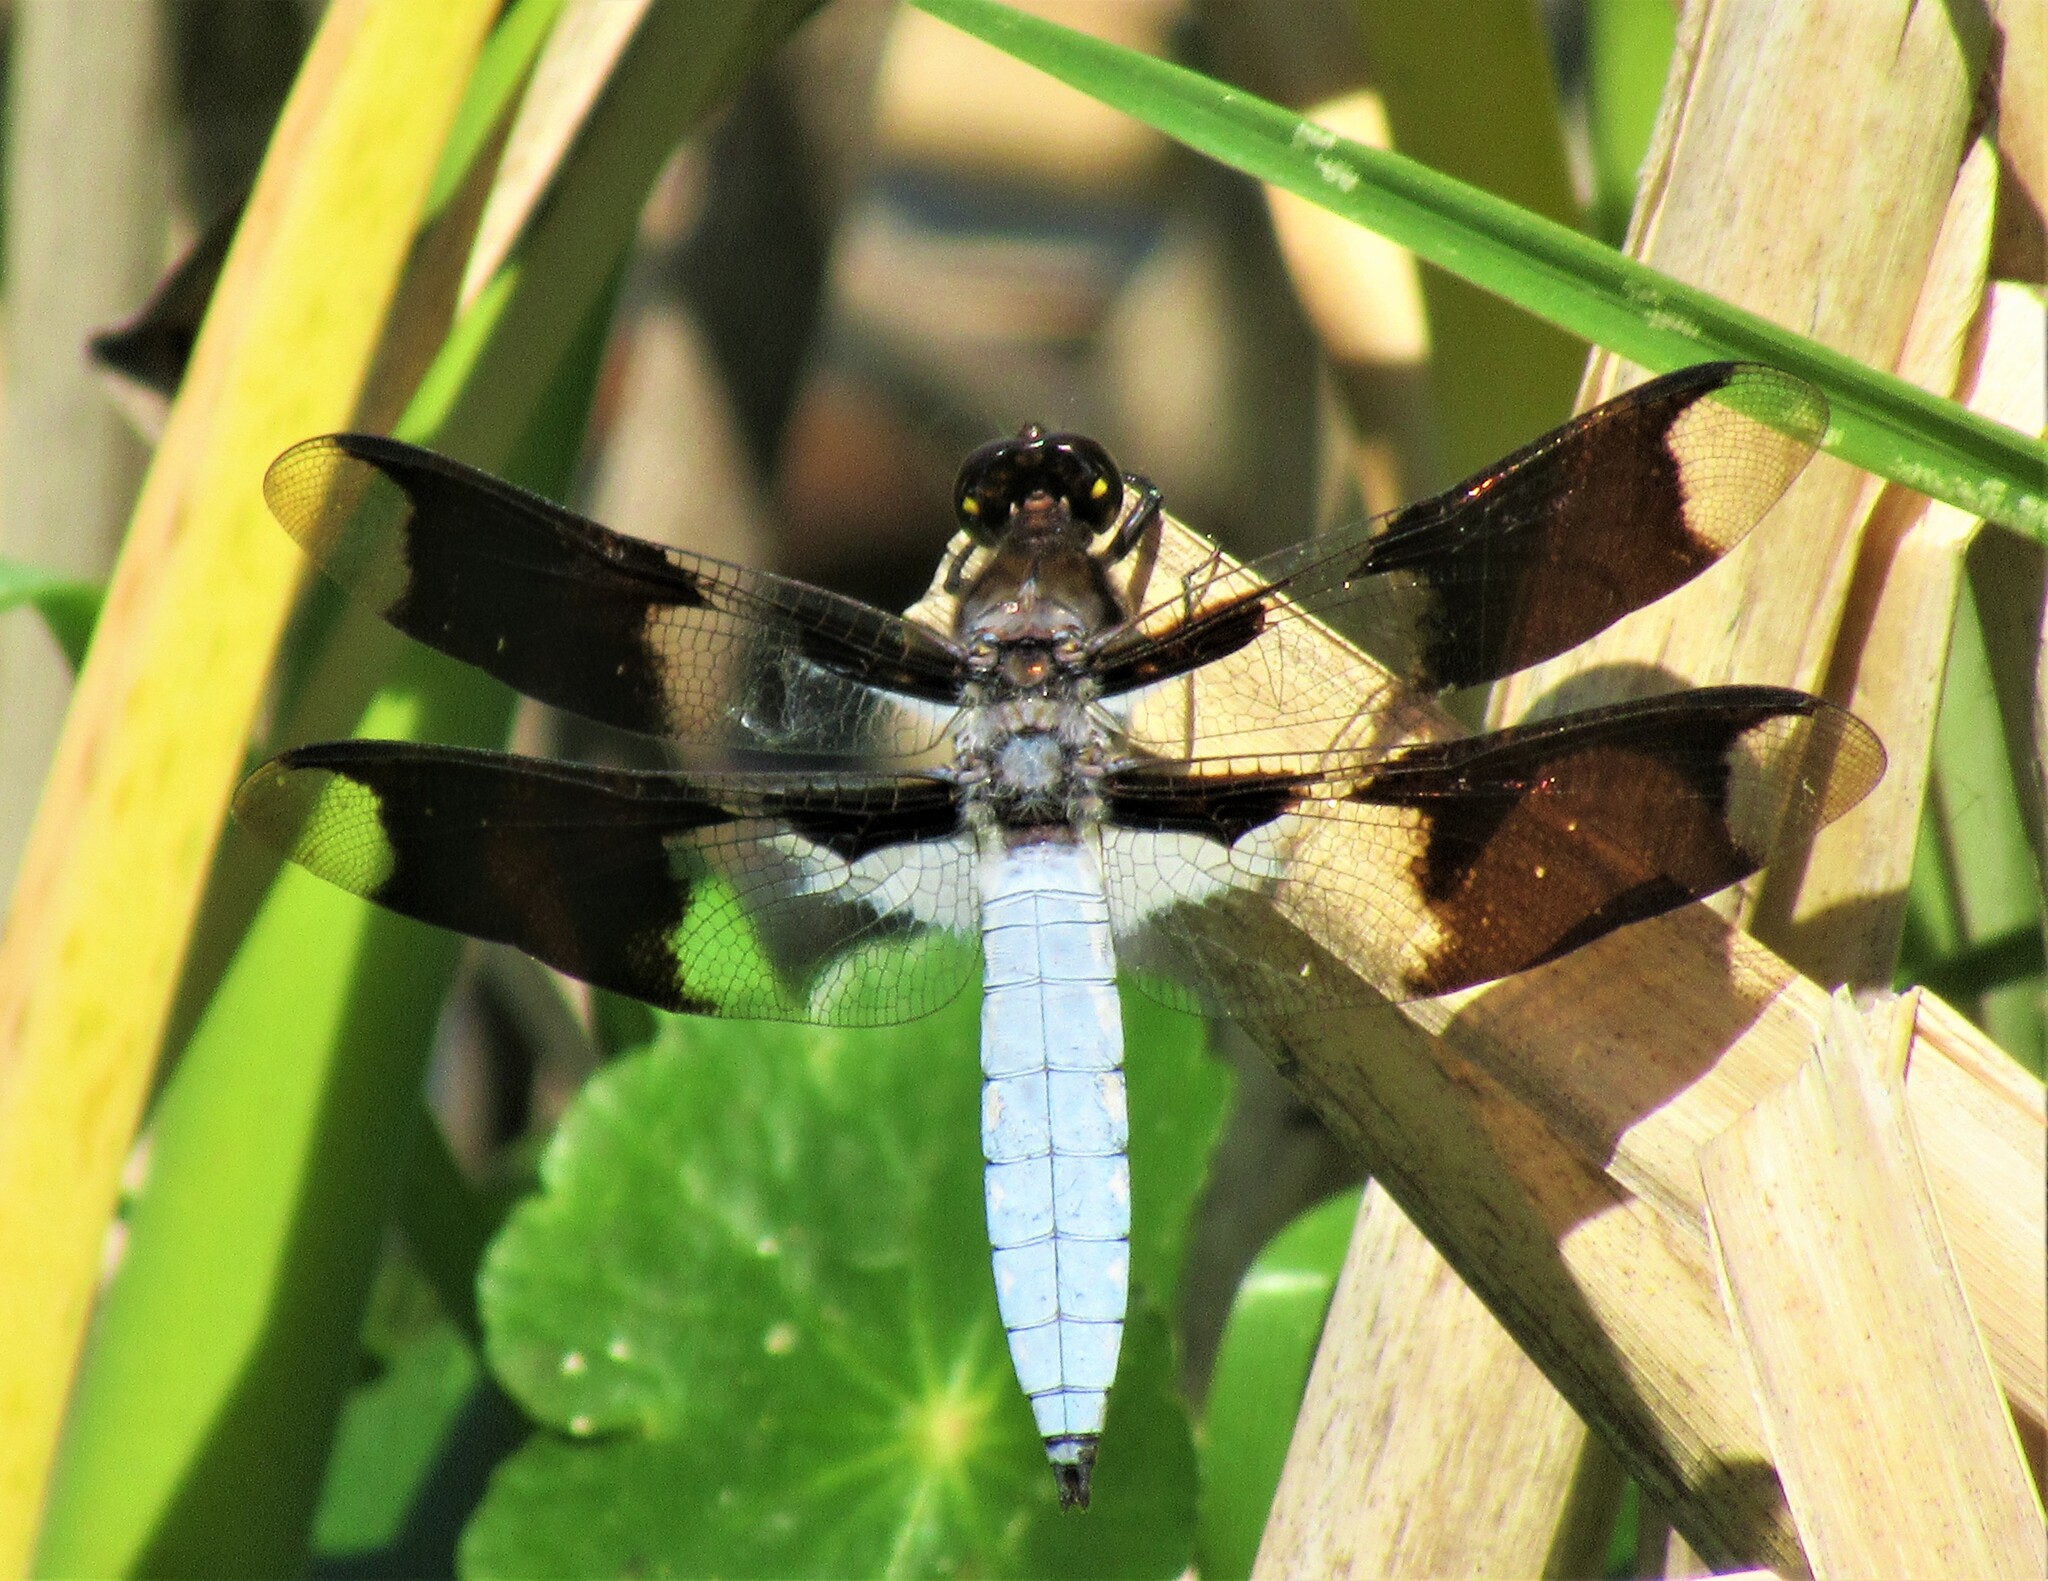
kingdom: Animalia
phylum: Arthropoda
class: Insecta
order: Odonata
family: Libellulidae
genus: Plathemis
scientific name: Plathemis lydia
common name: Common whitetail
